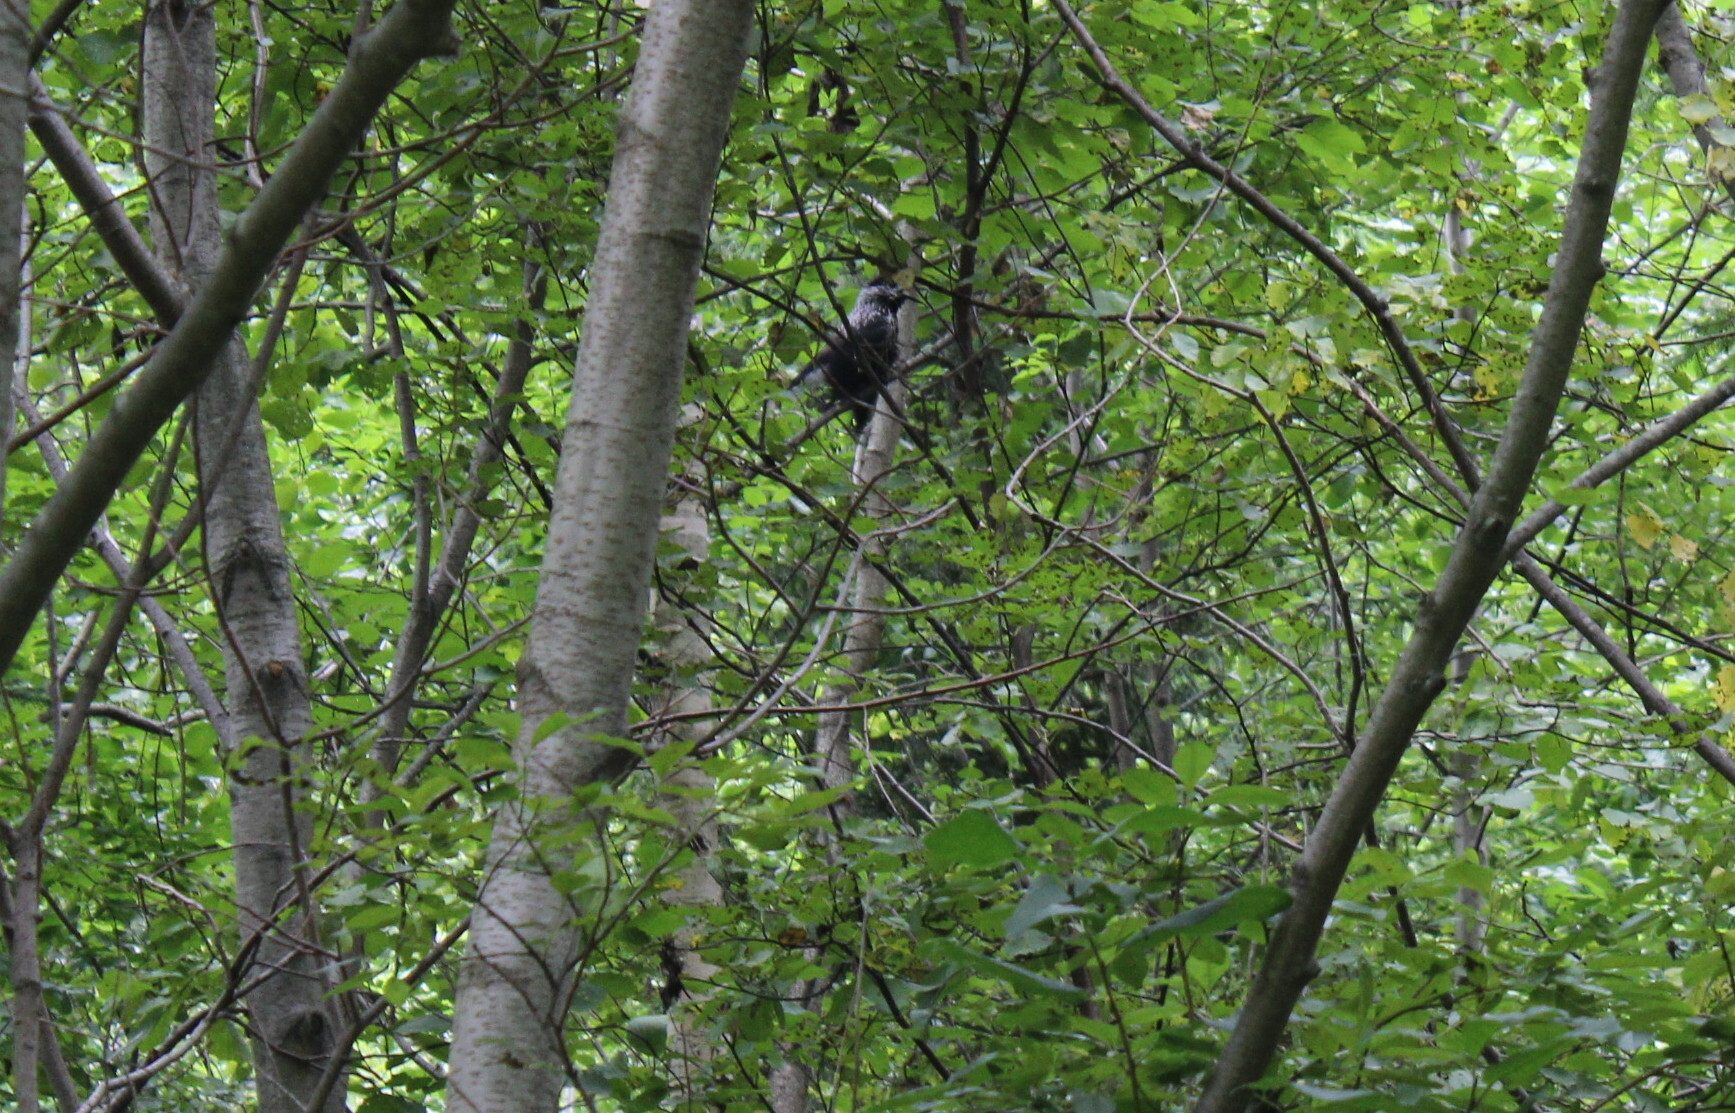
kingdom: Animalia
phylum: Chordata
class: Aves
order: Passeriformes
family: Corvidae
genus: Nucifraga
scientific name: Nucifraga caryocatactes
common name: Spotted nutcracker
